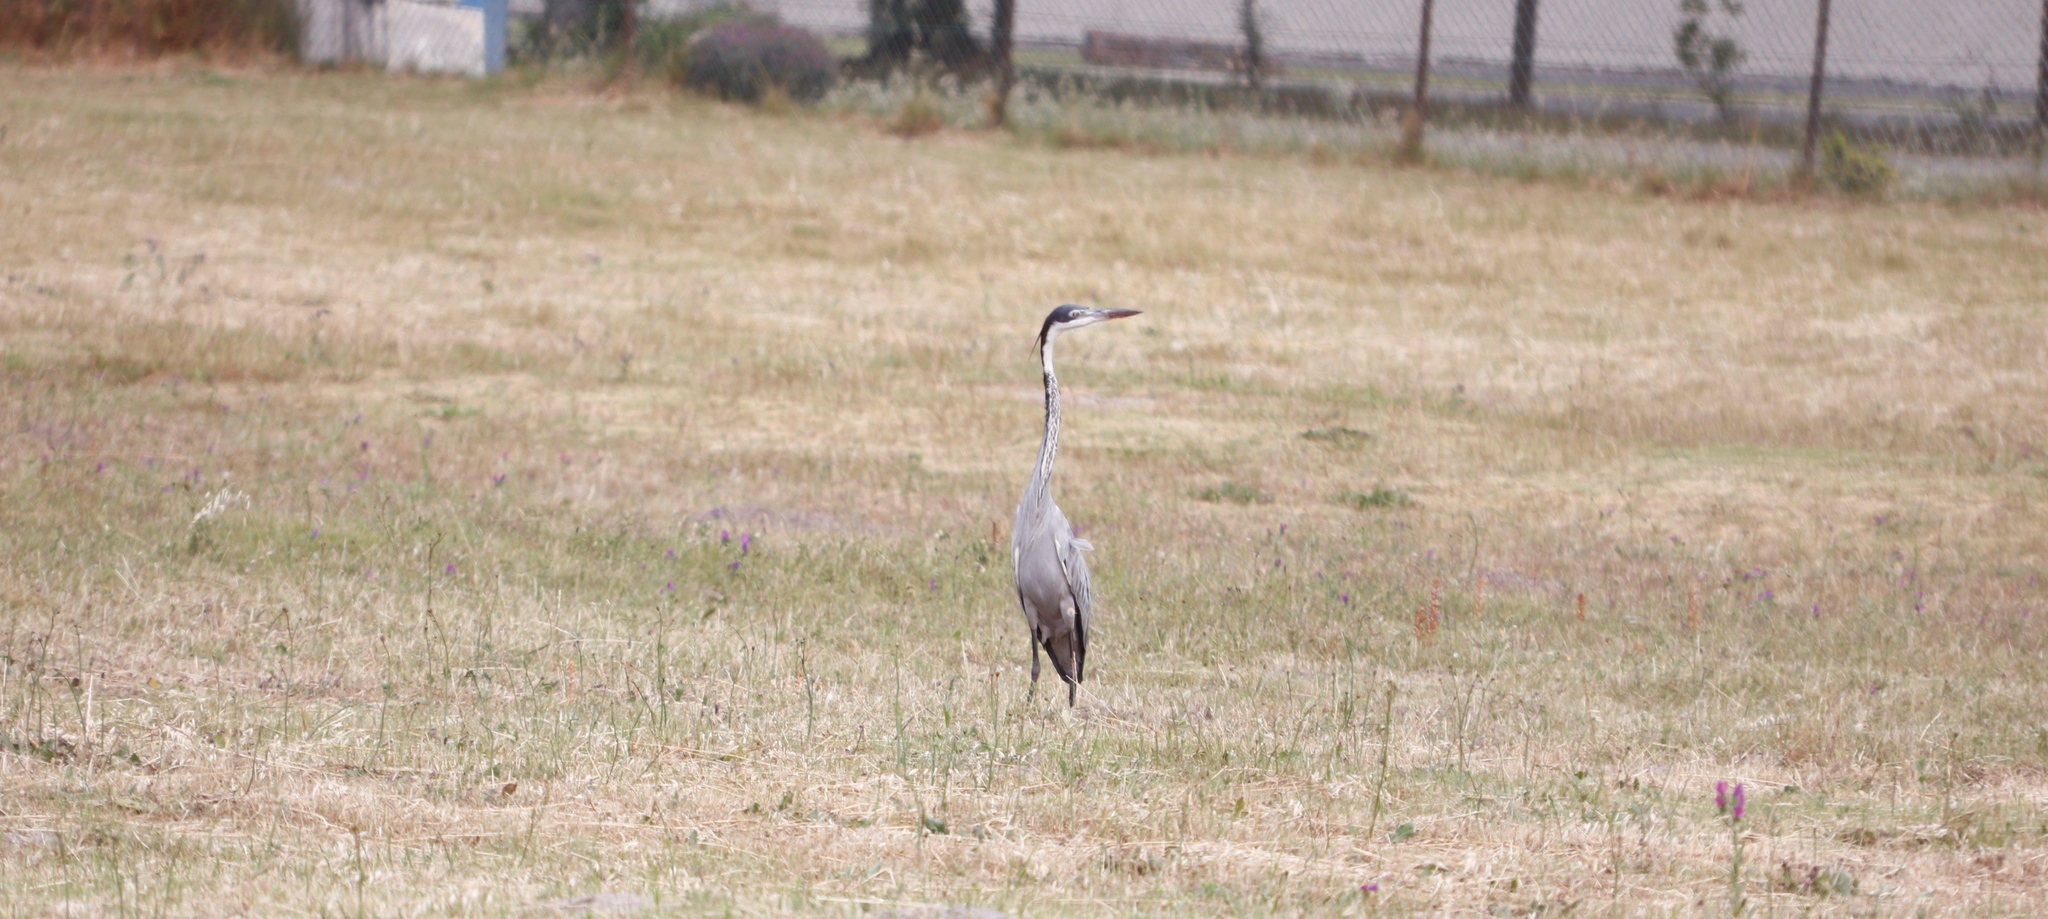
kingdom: Animalia
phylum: Chordata
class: Aves
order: Pelecaniformes
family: Ardeidae
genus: Ardea
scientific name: Ardea melanocephala
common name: Black-headed heron
